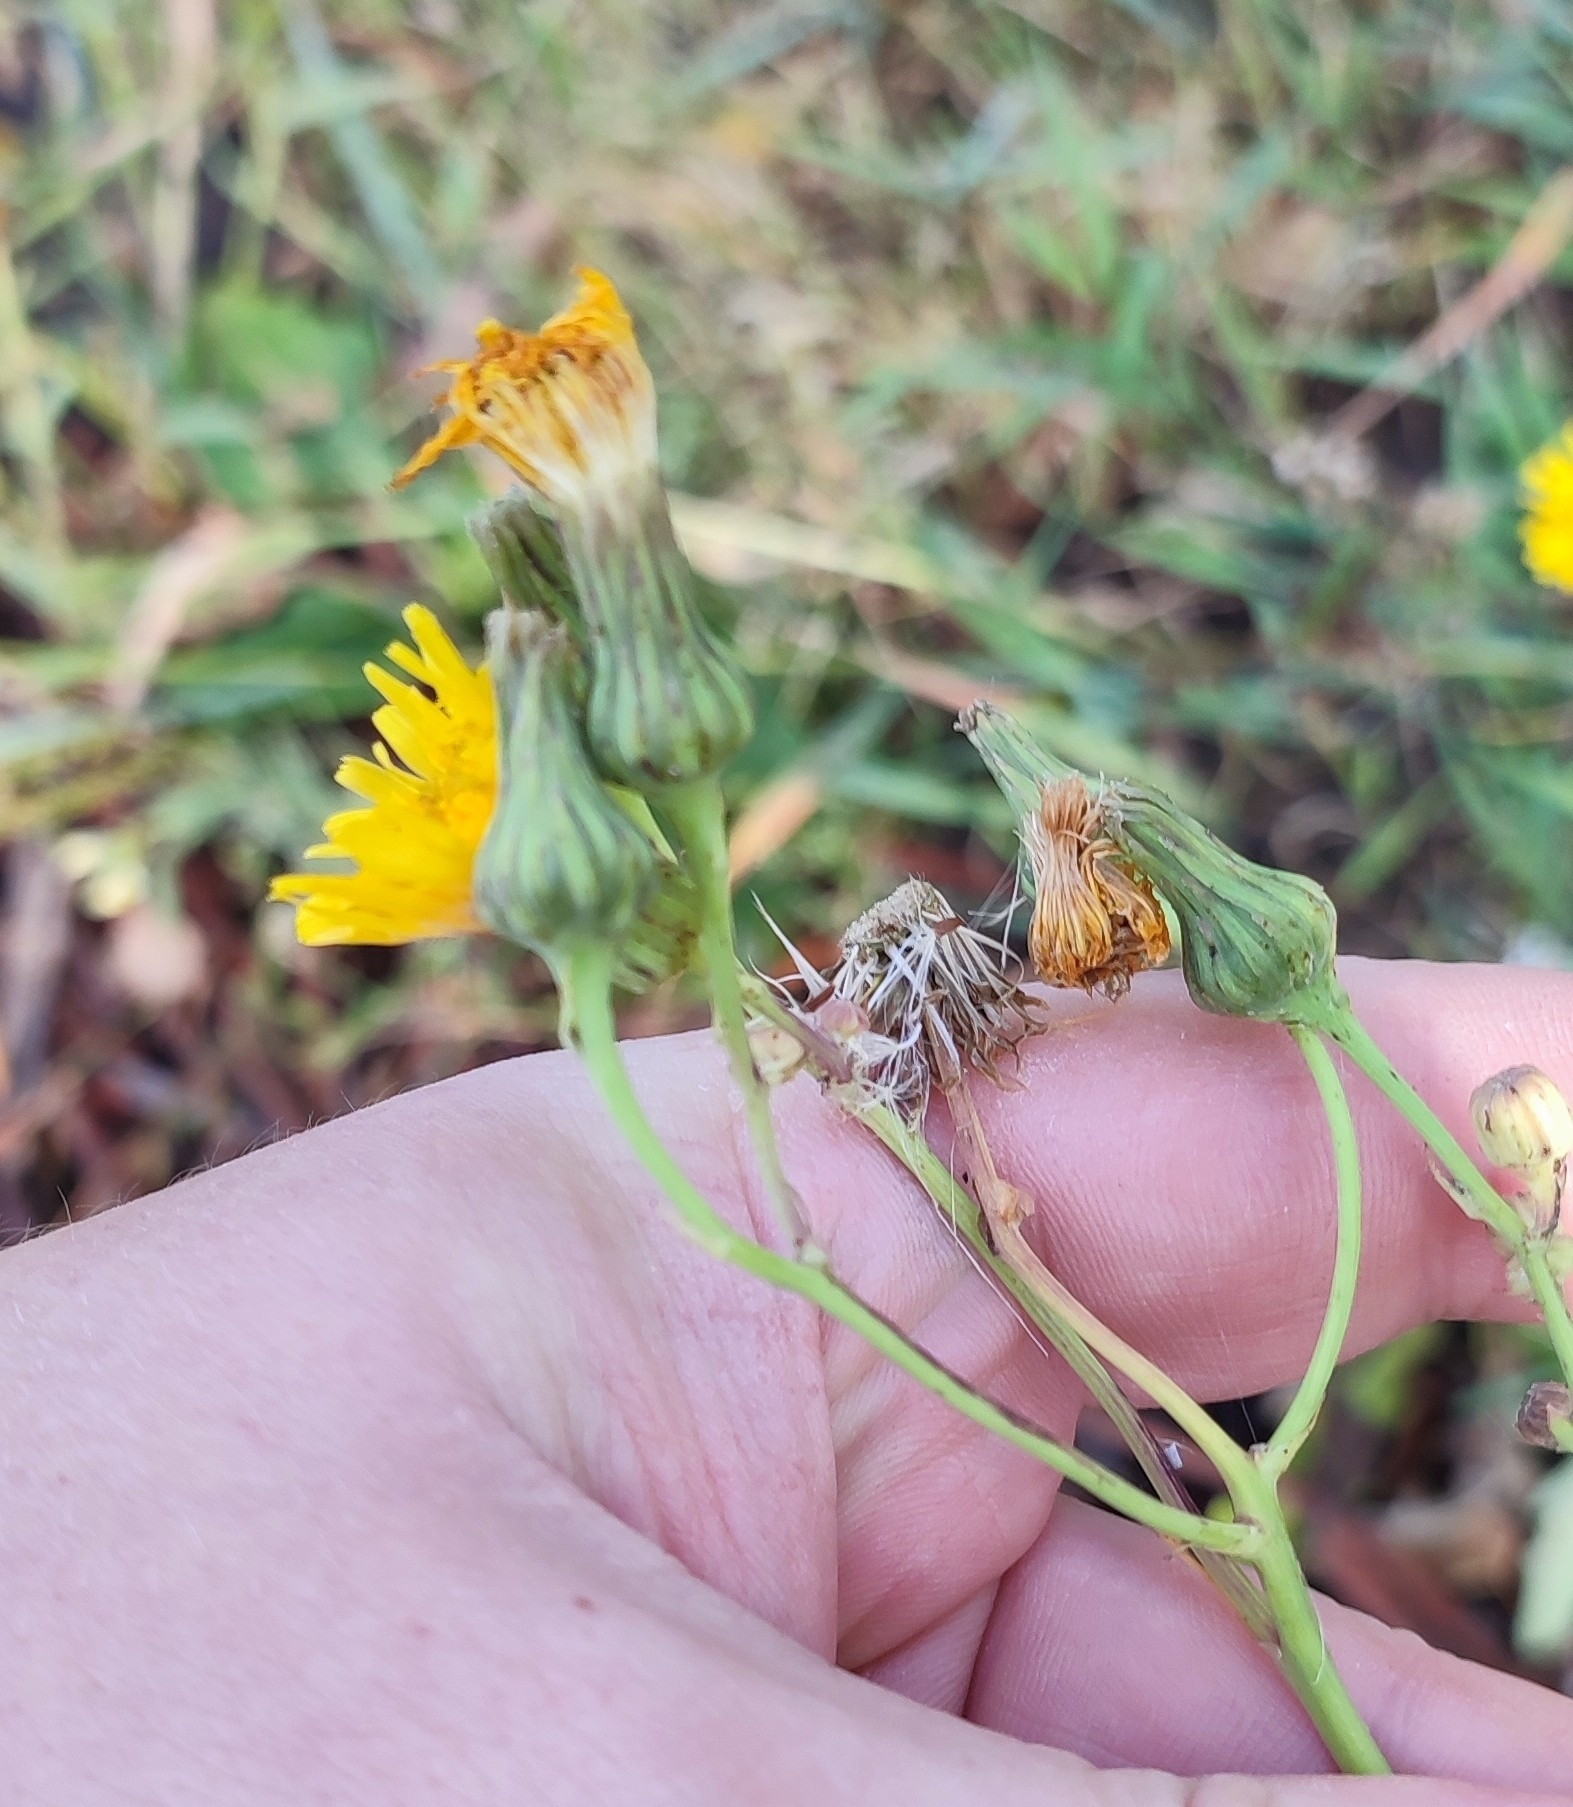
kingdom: Plantae
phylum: Tracheophyta
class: Magnoliopsida
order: Asterales
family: Asteraceae
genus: Sonchus
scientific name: Sonchus arvensis
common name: Perennial sow-thistle
